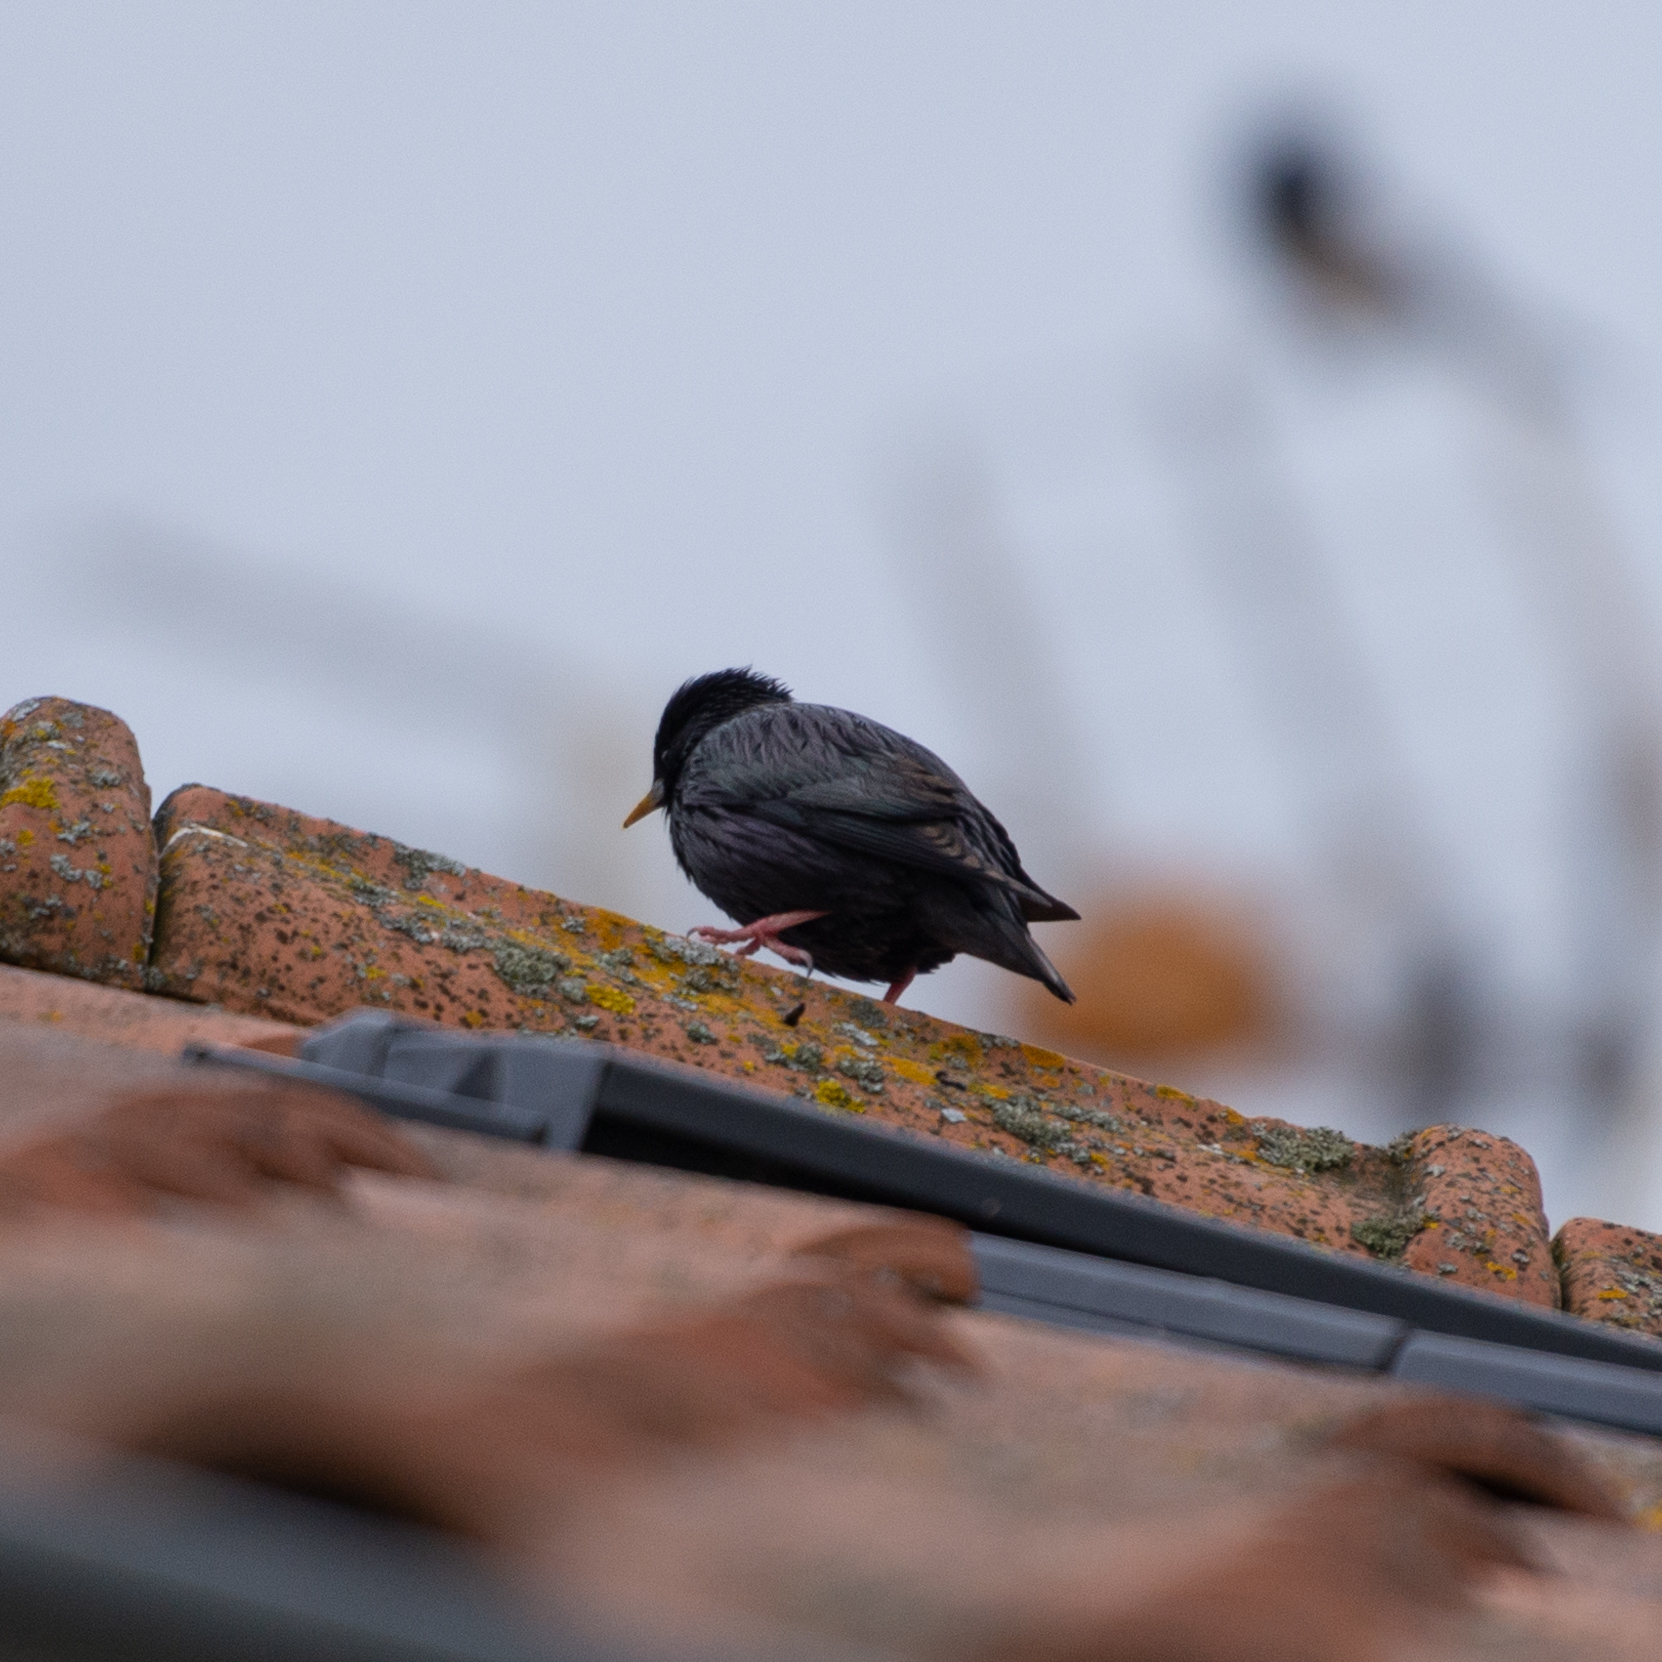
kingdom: Animalia
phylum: Chordata
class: Aves
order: Passeriformes
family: Sturnidae
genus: Sturnus
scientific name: Sturnus unicolor
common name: Spotless starling
